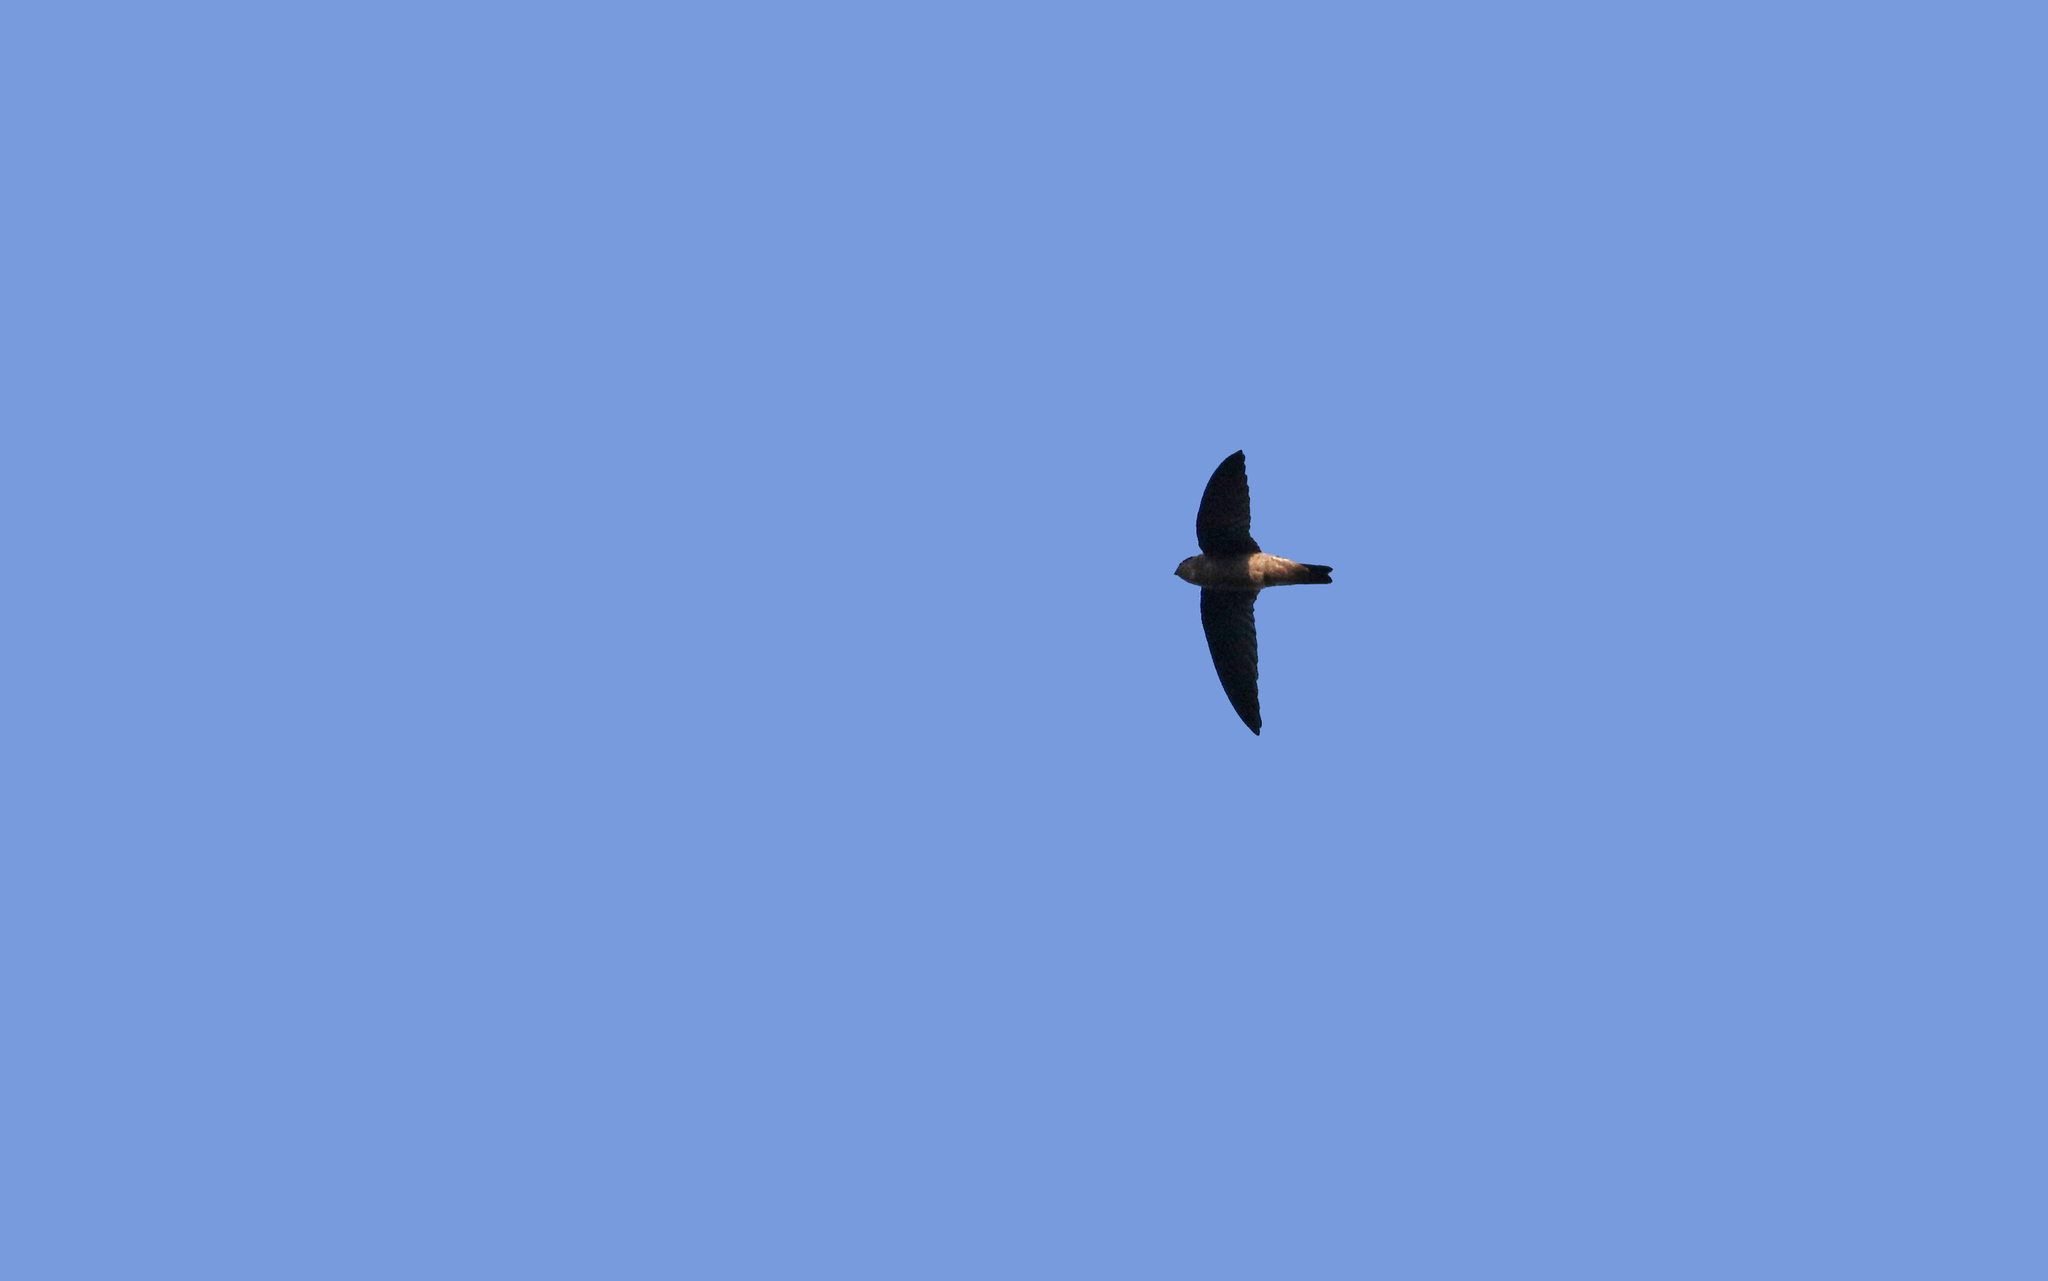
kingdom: Animalia
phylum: Chordata
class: Aves
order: Apodiformes
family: Apodidae
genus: Aerodramus
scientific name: Aerodramus
